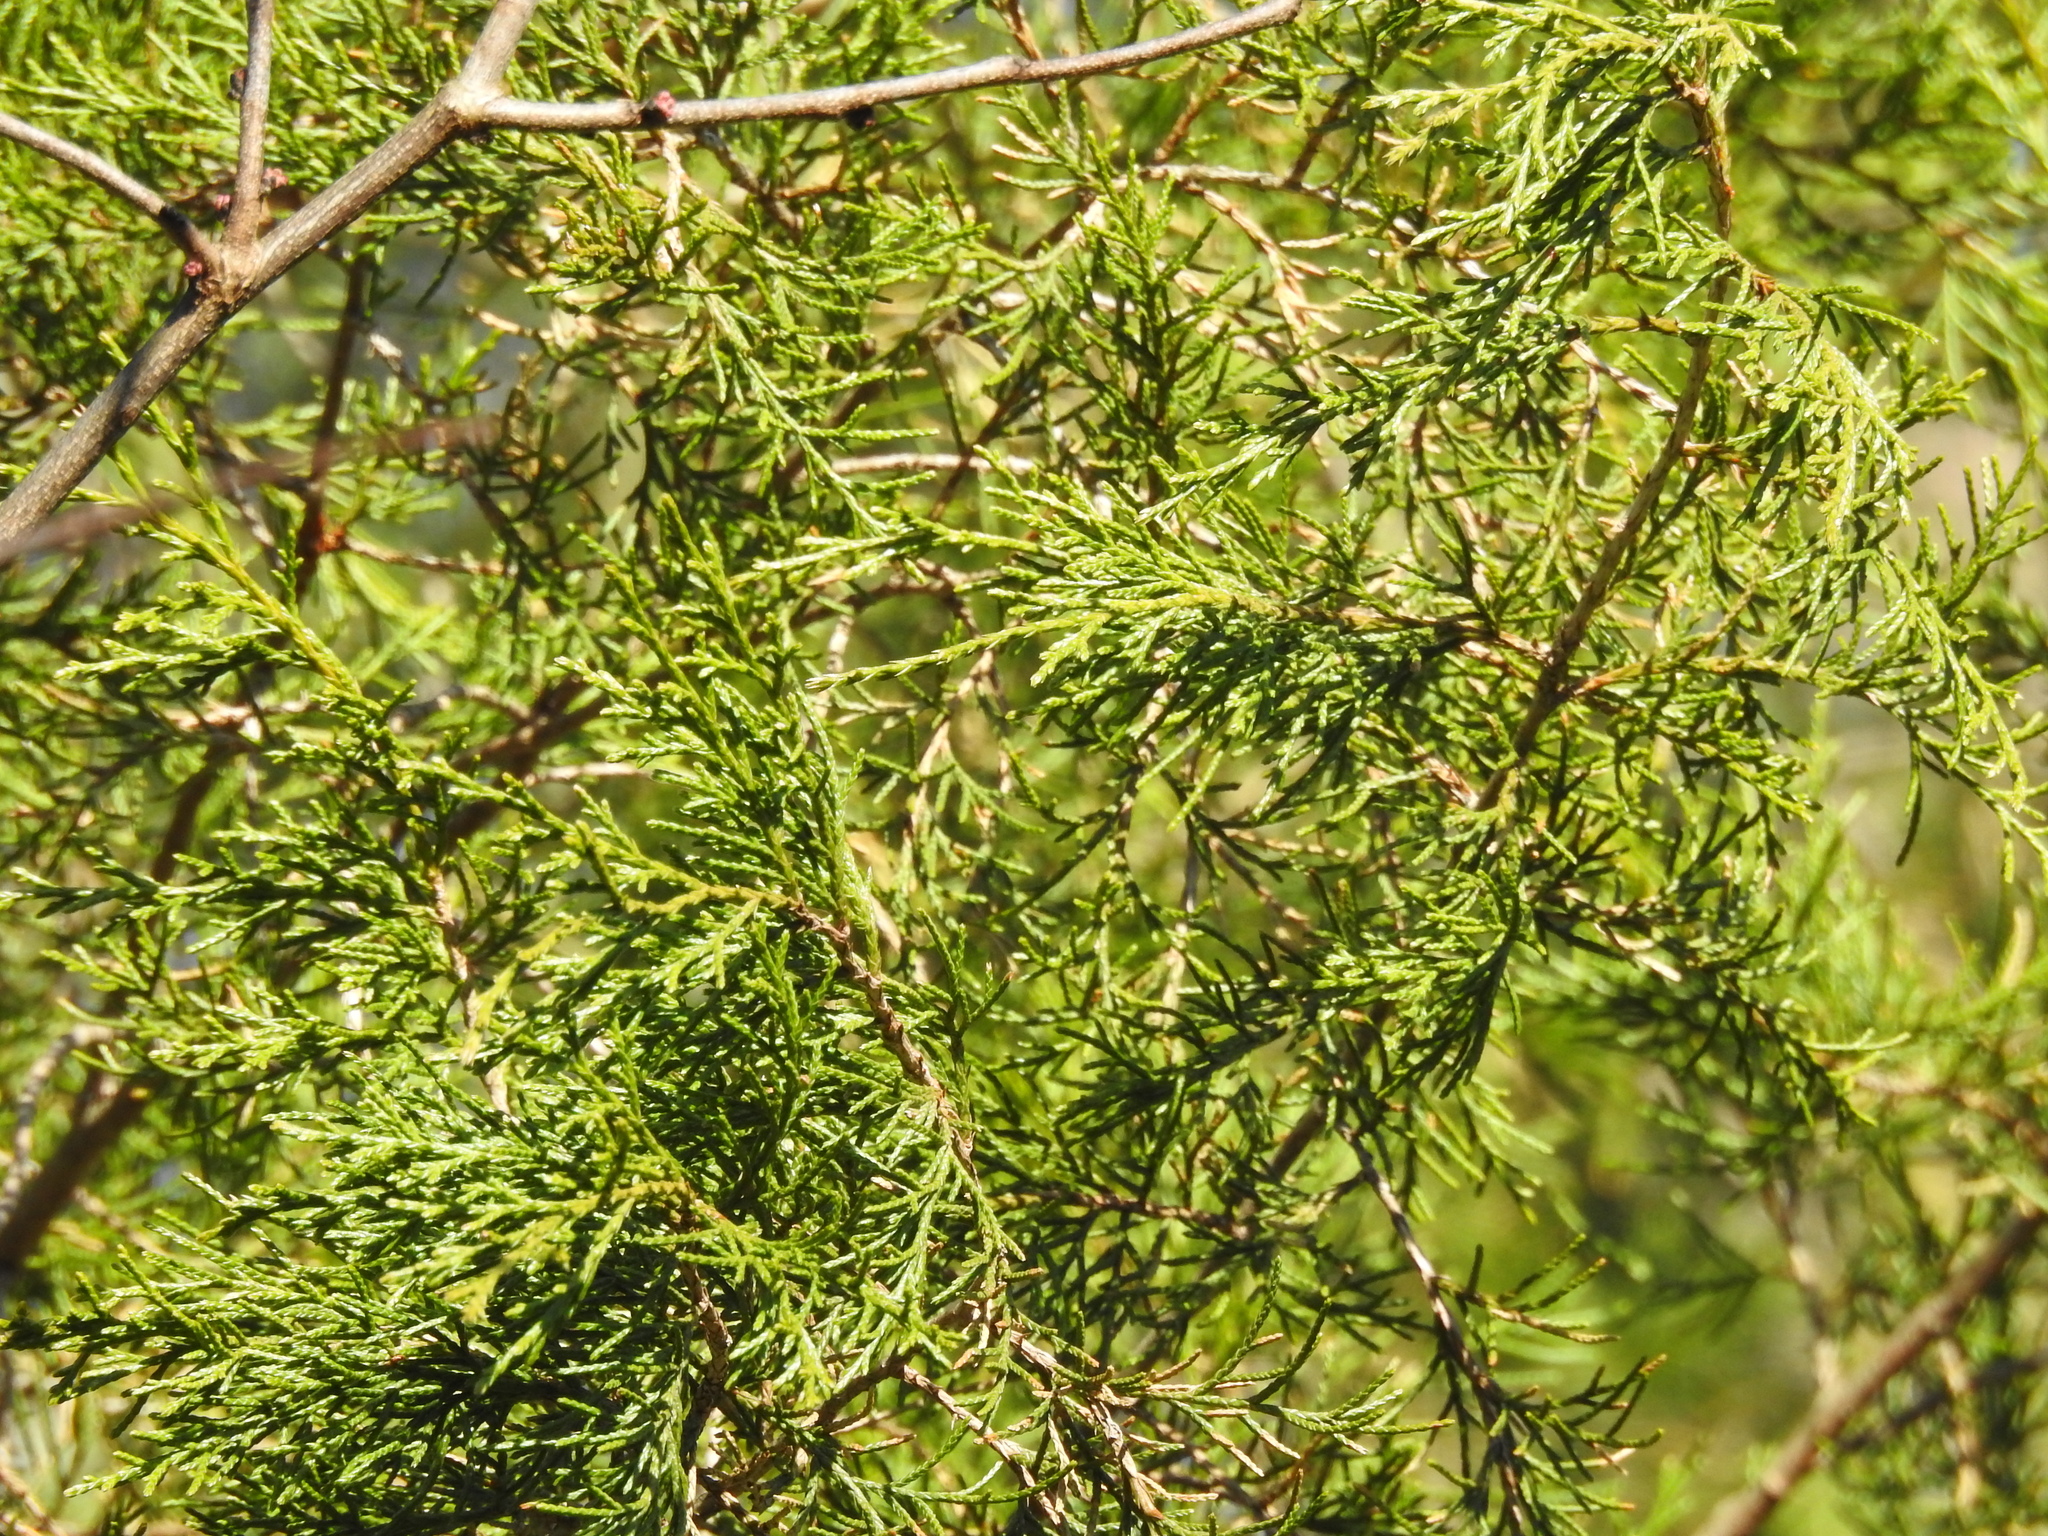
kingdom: Plantae
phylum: Tracheophyta
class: Pinopsida
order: Pinales
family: Cupressaceae
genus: Juniperus
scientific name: Juniperus virginiana
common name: Red juniper
